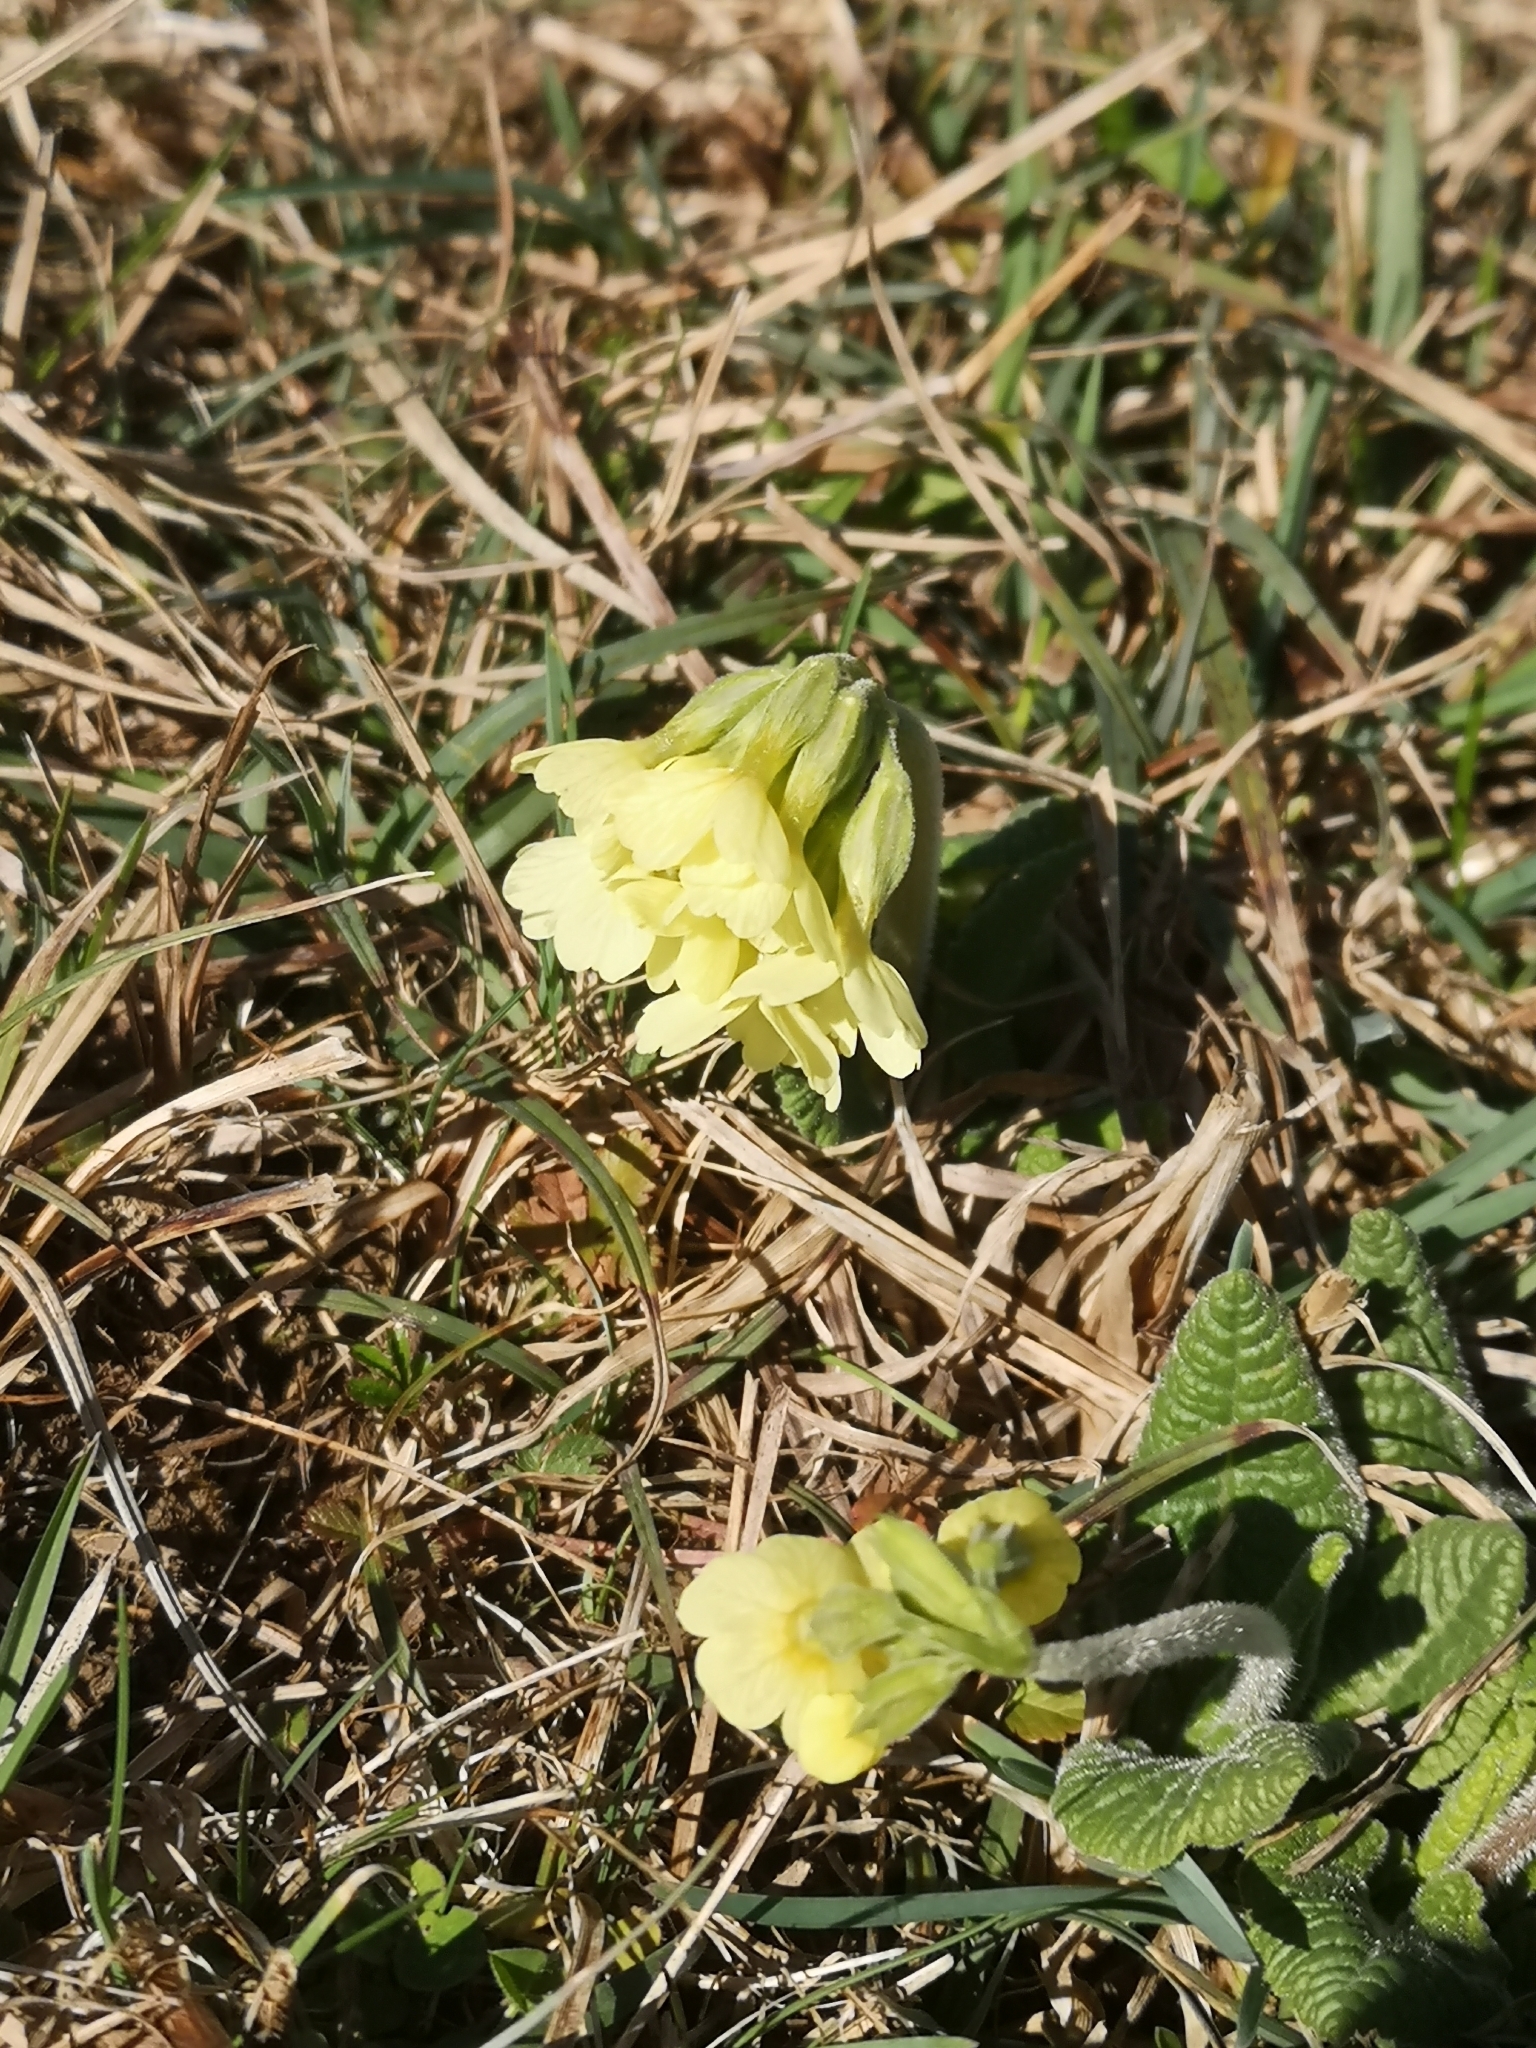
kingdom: Plantae
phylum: Tracheophyta
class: Magnoliopsida
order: Ericales
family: Primulaceae
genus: Primula
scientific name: Primula elatior
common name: Oxlip
